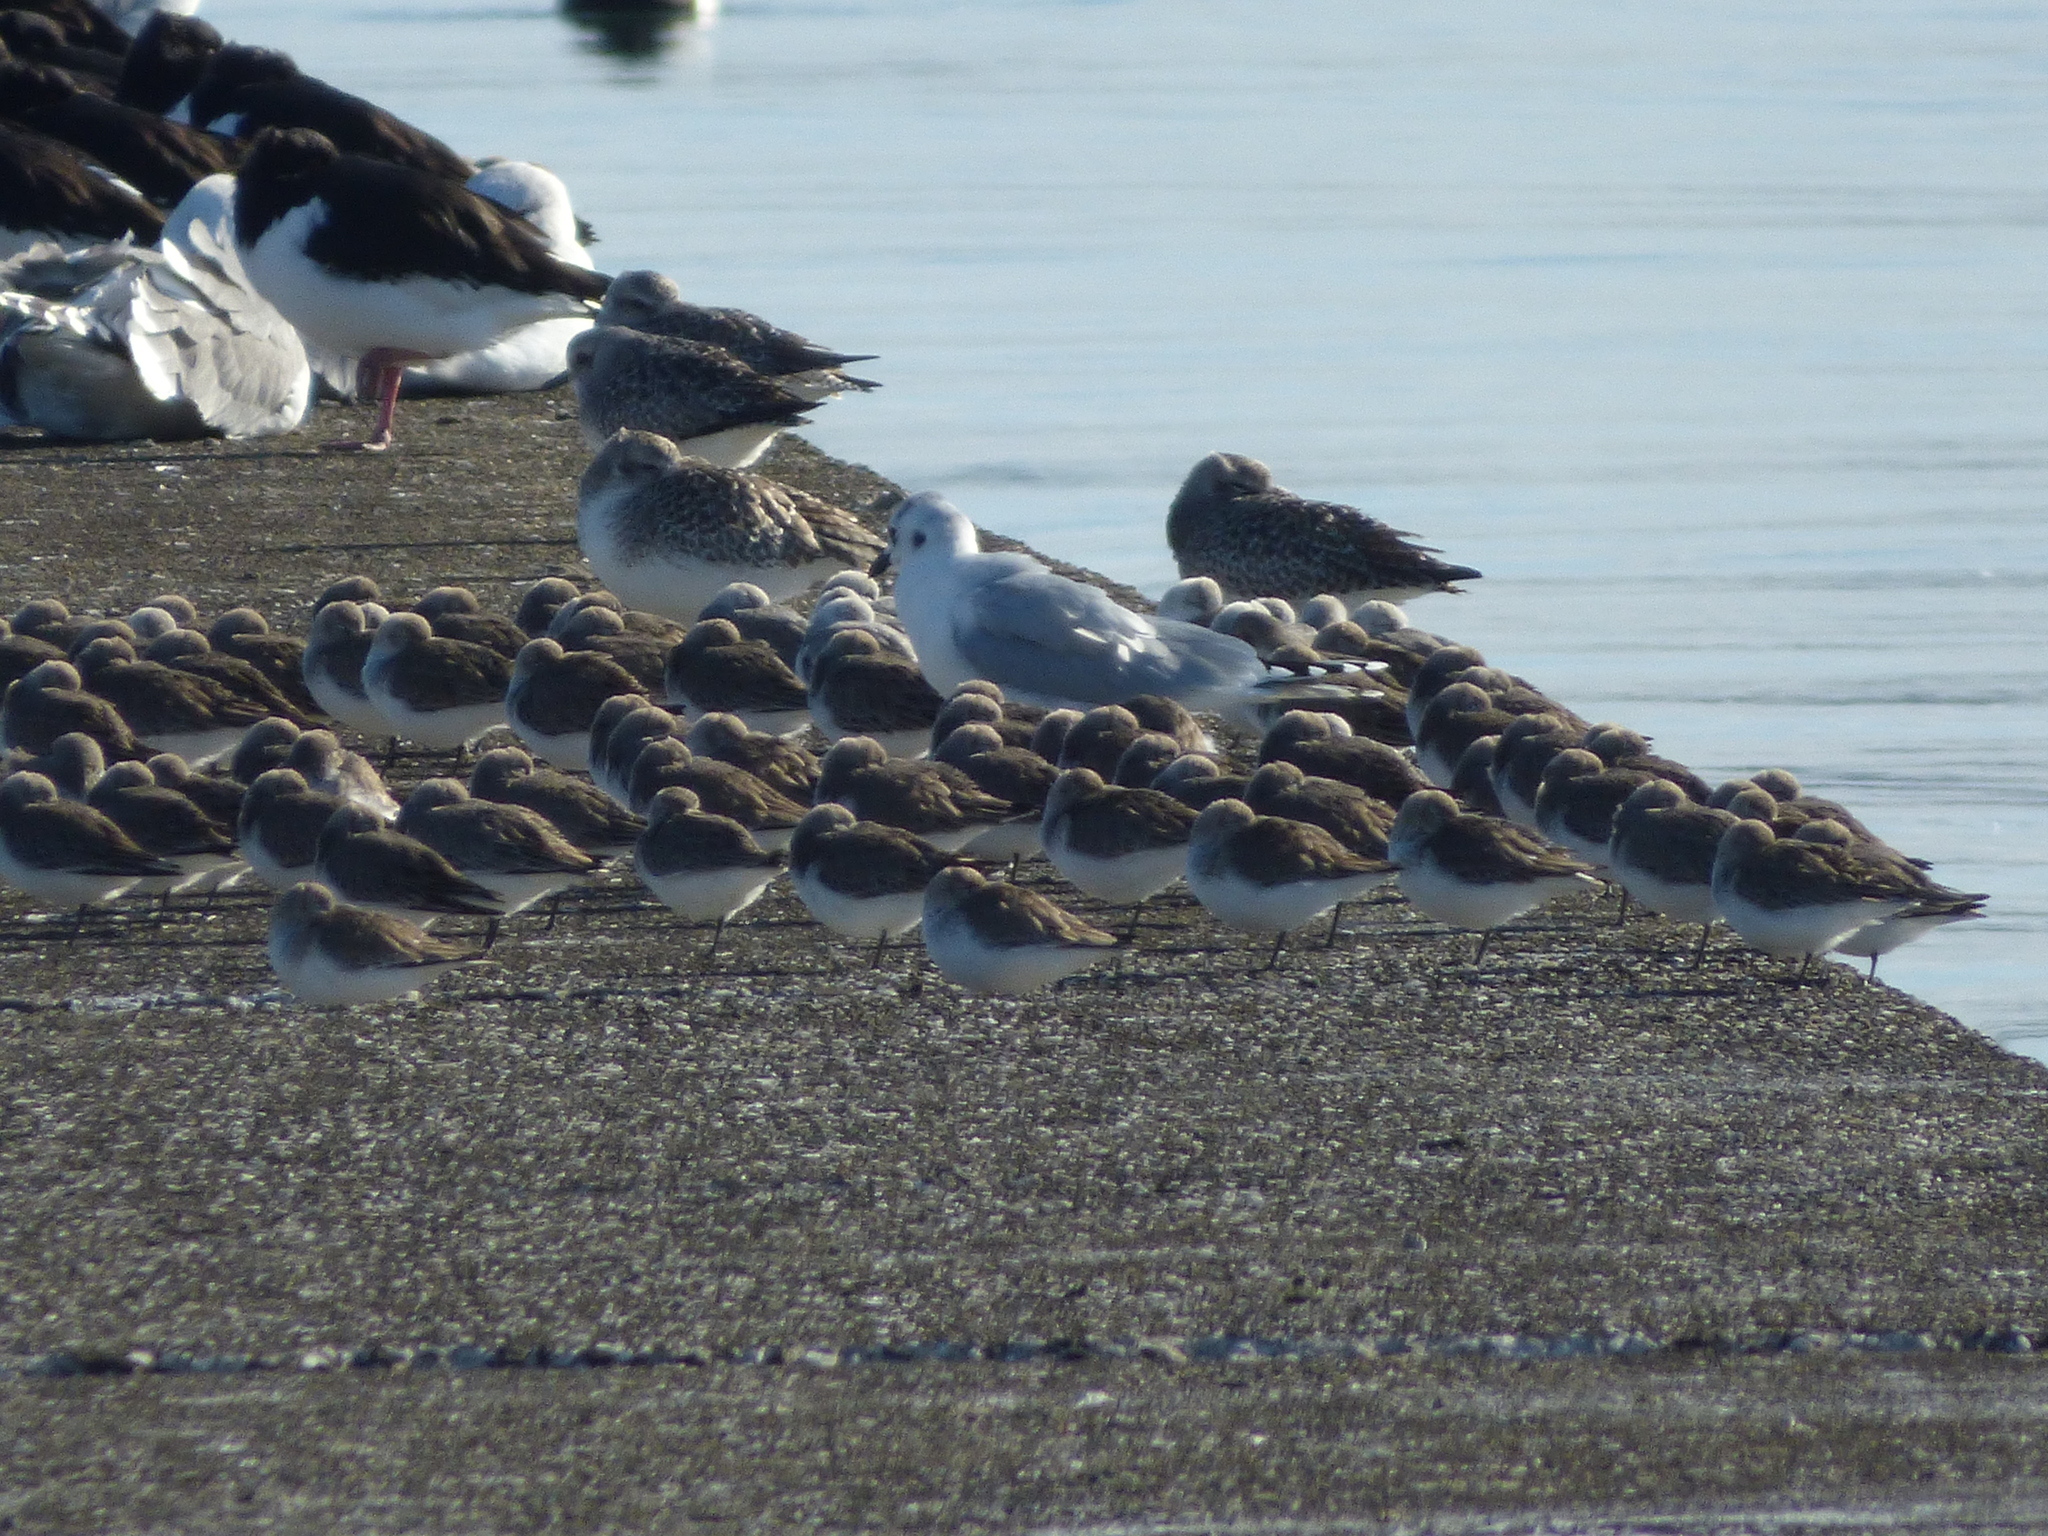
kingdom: Animalia
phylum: Chordata
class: Aves
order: Charadriiformes
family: Scolopacidae
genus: Calidris
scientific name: Calidris alpina
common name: Dunlin
